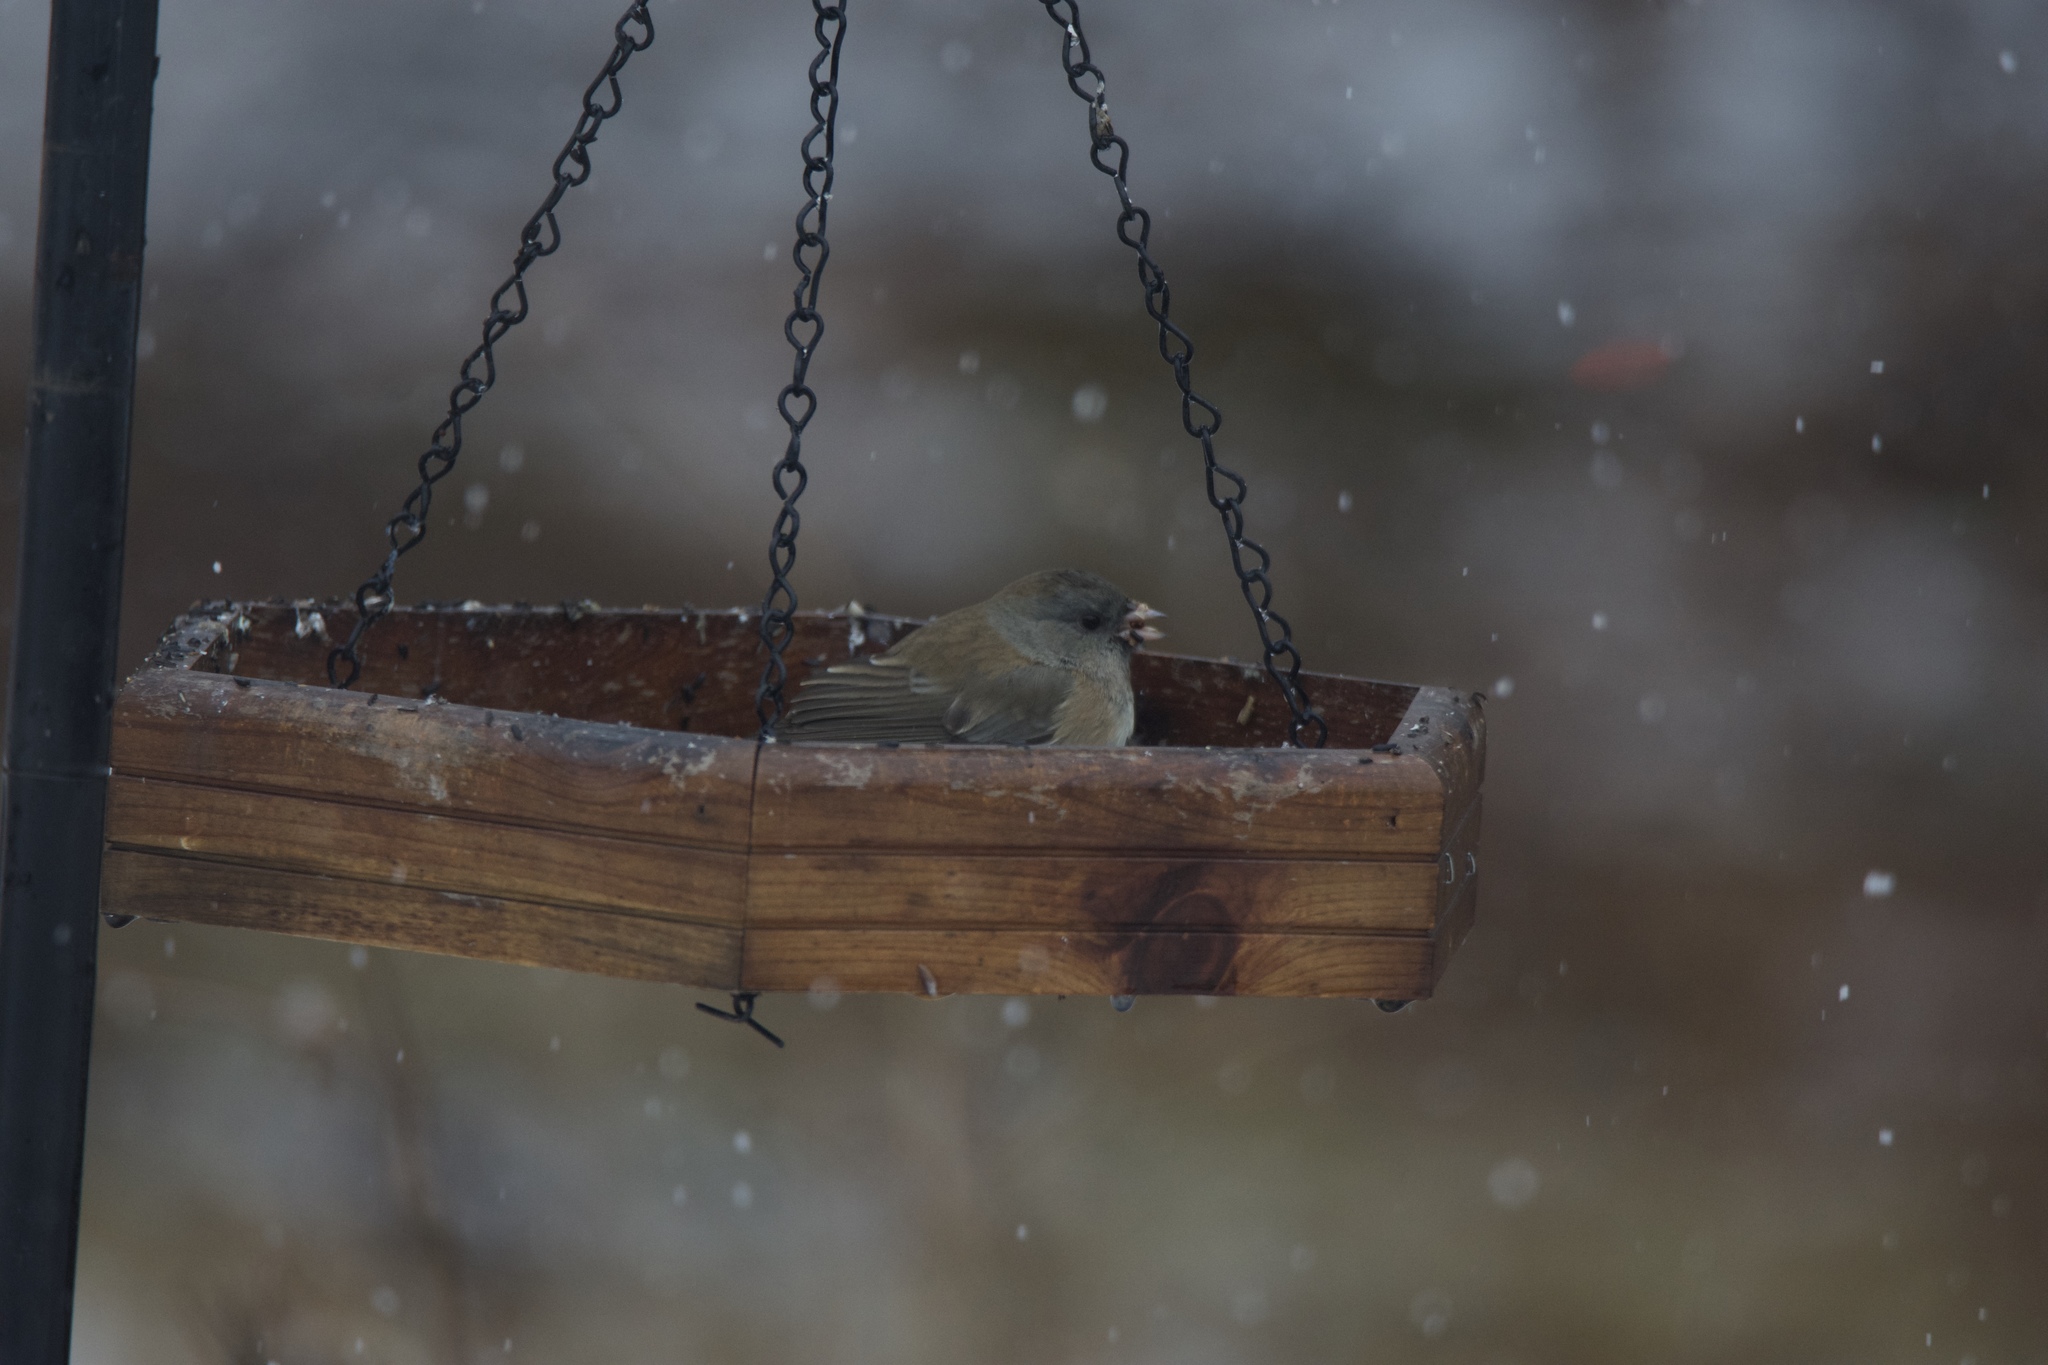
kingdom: Animalia
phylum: Chordata
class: Aves
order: Passeriformes
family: Passerellidae
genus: Junco
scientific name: Junco hyemalis
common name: Dark-eyed junco
